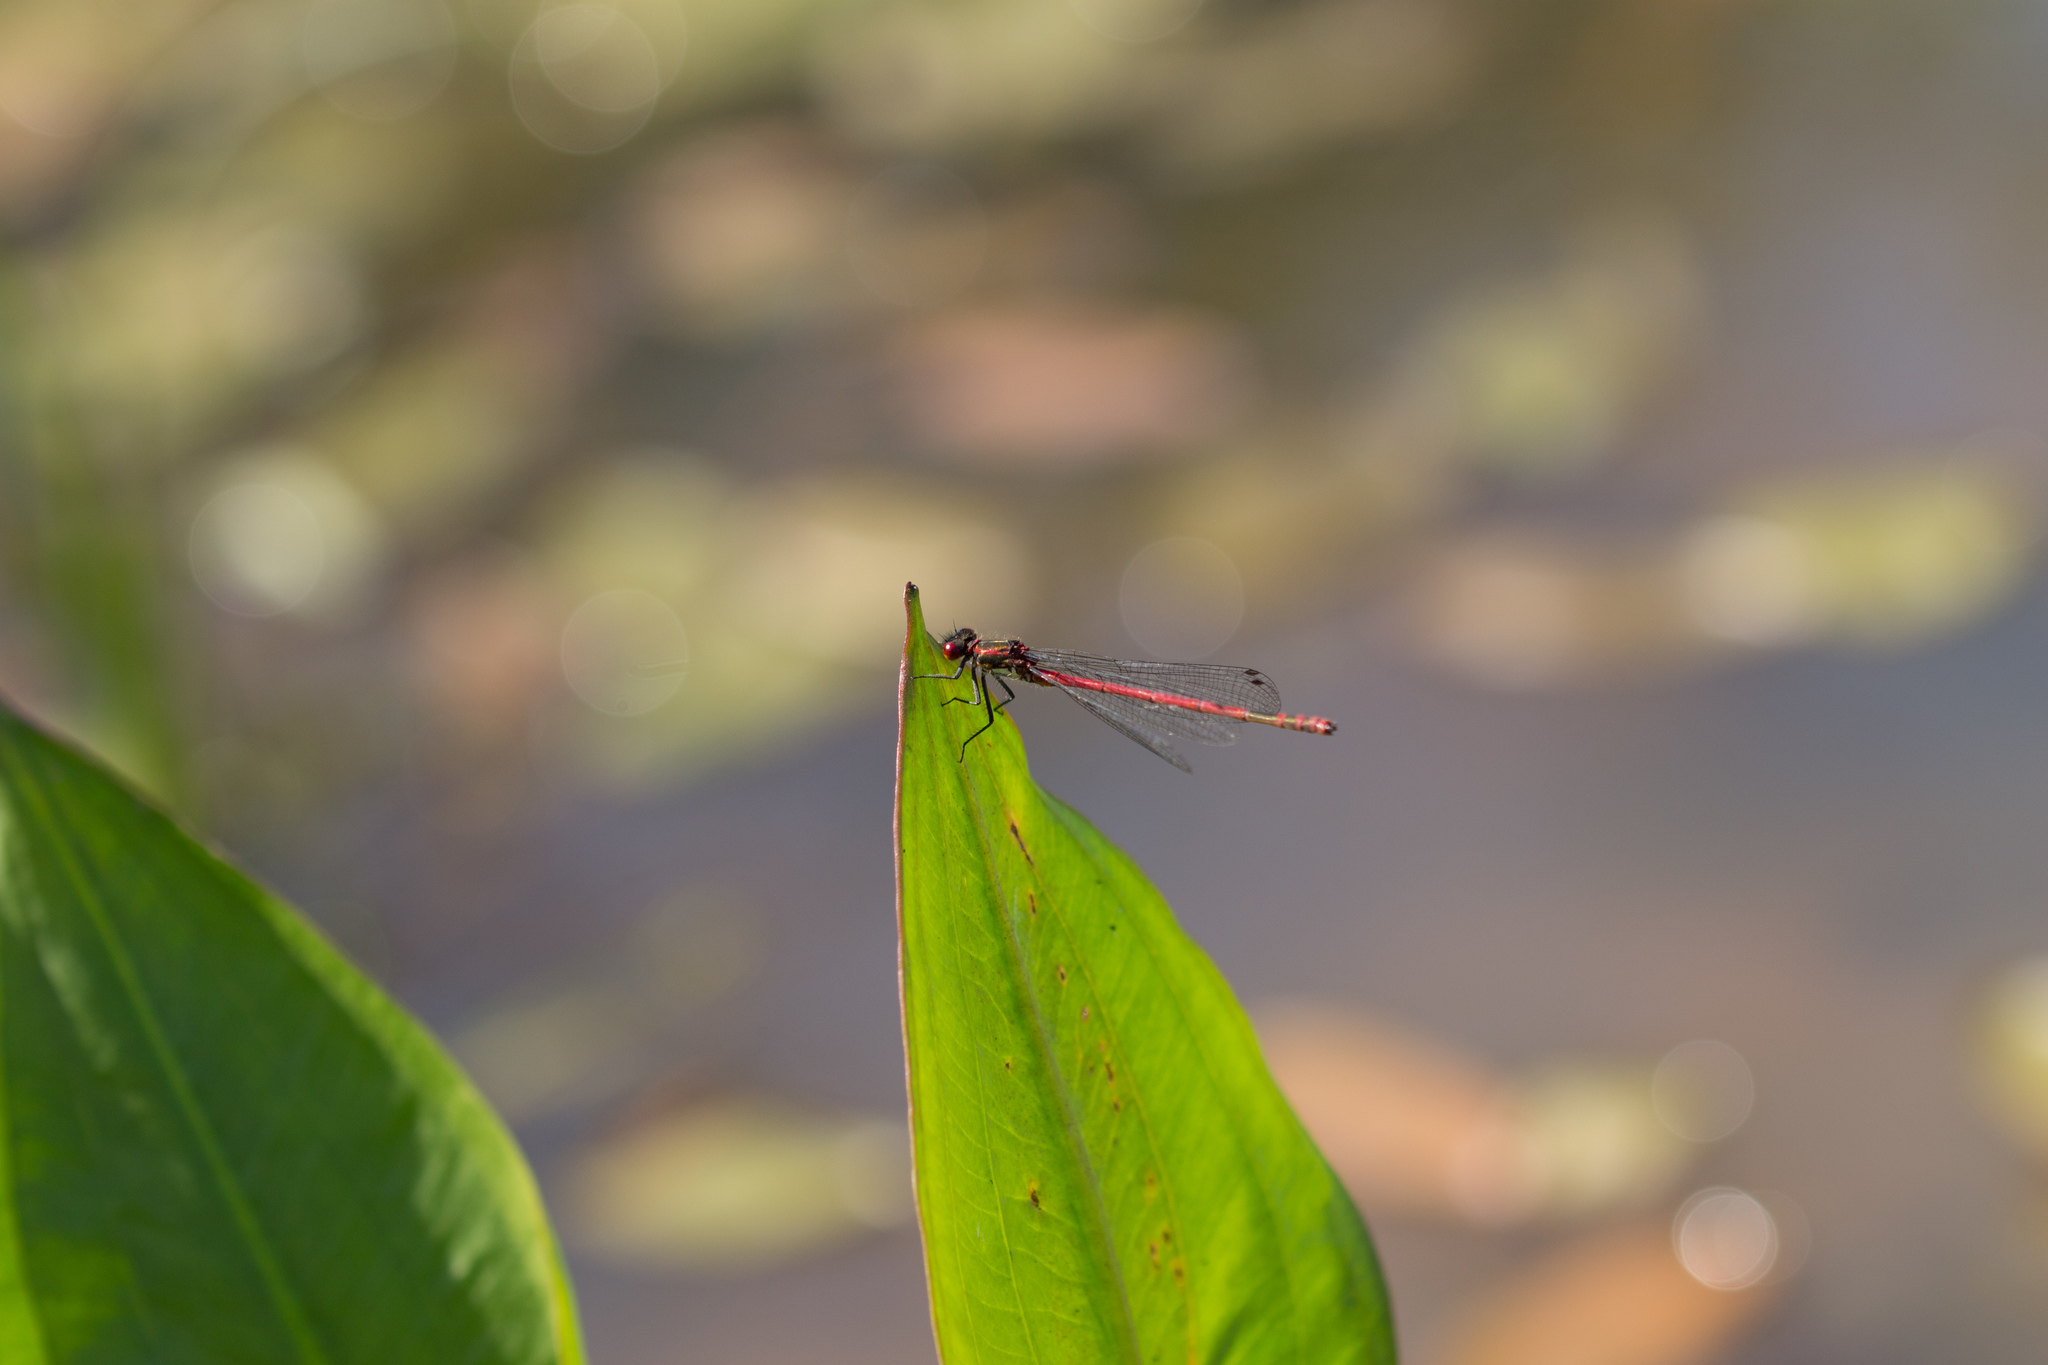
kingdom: Animalia
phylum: Arthropoda
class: Insecta
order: Odonata
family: Coenagrionidae
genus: Pyrrhosoma
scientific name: Pyrrhosoma nymphula
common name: Large red damsel
